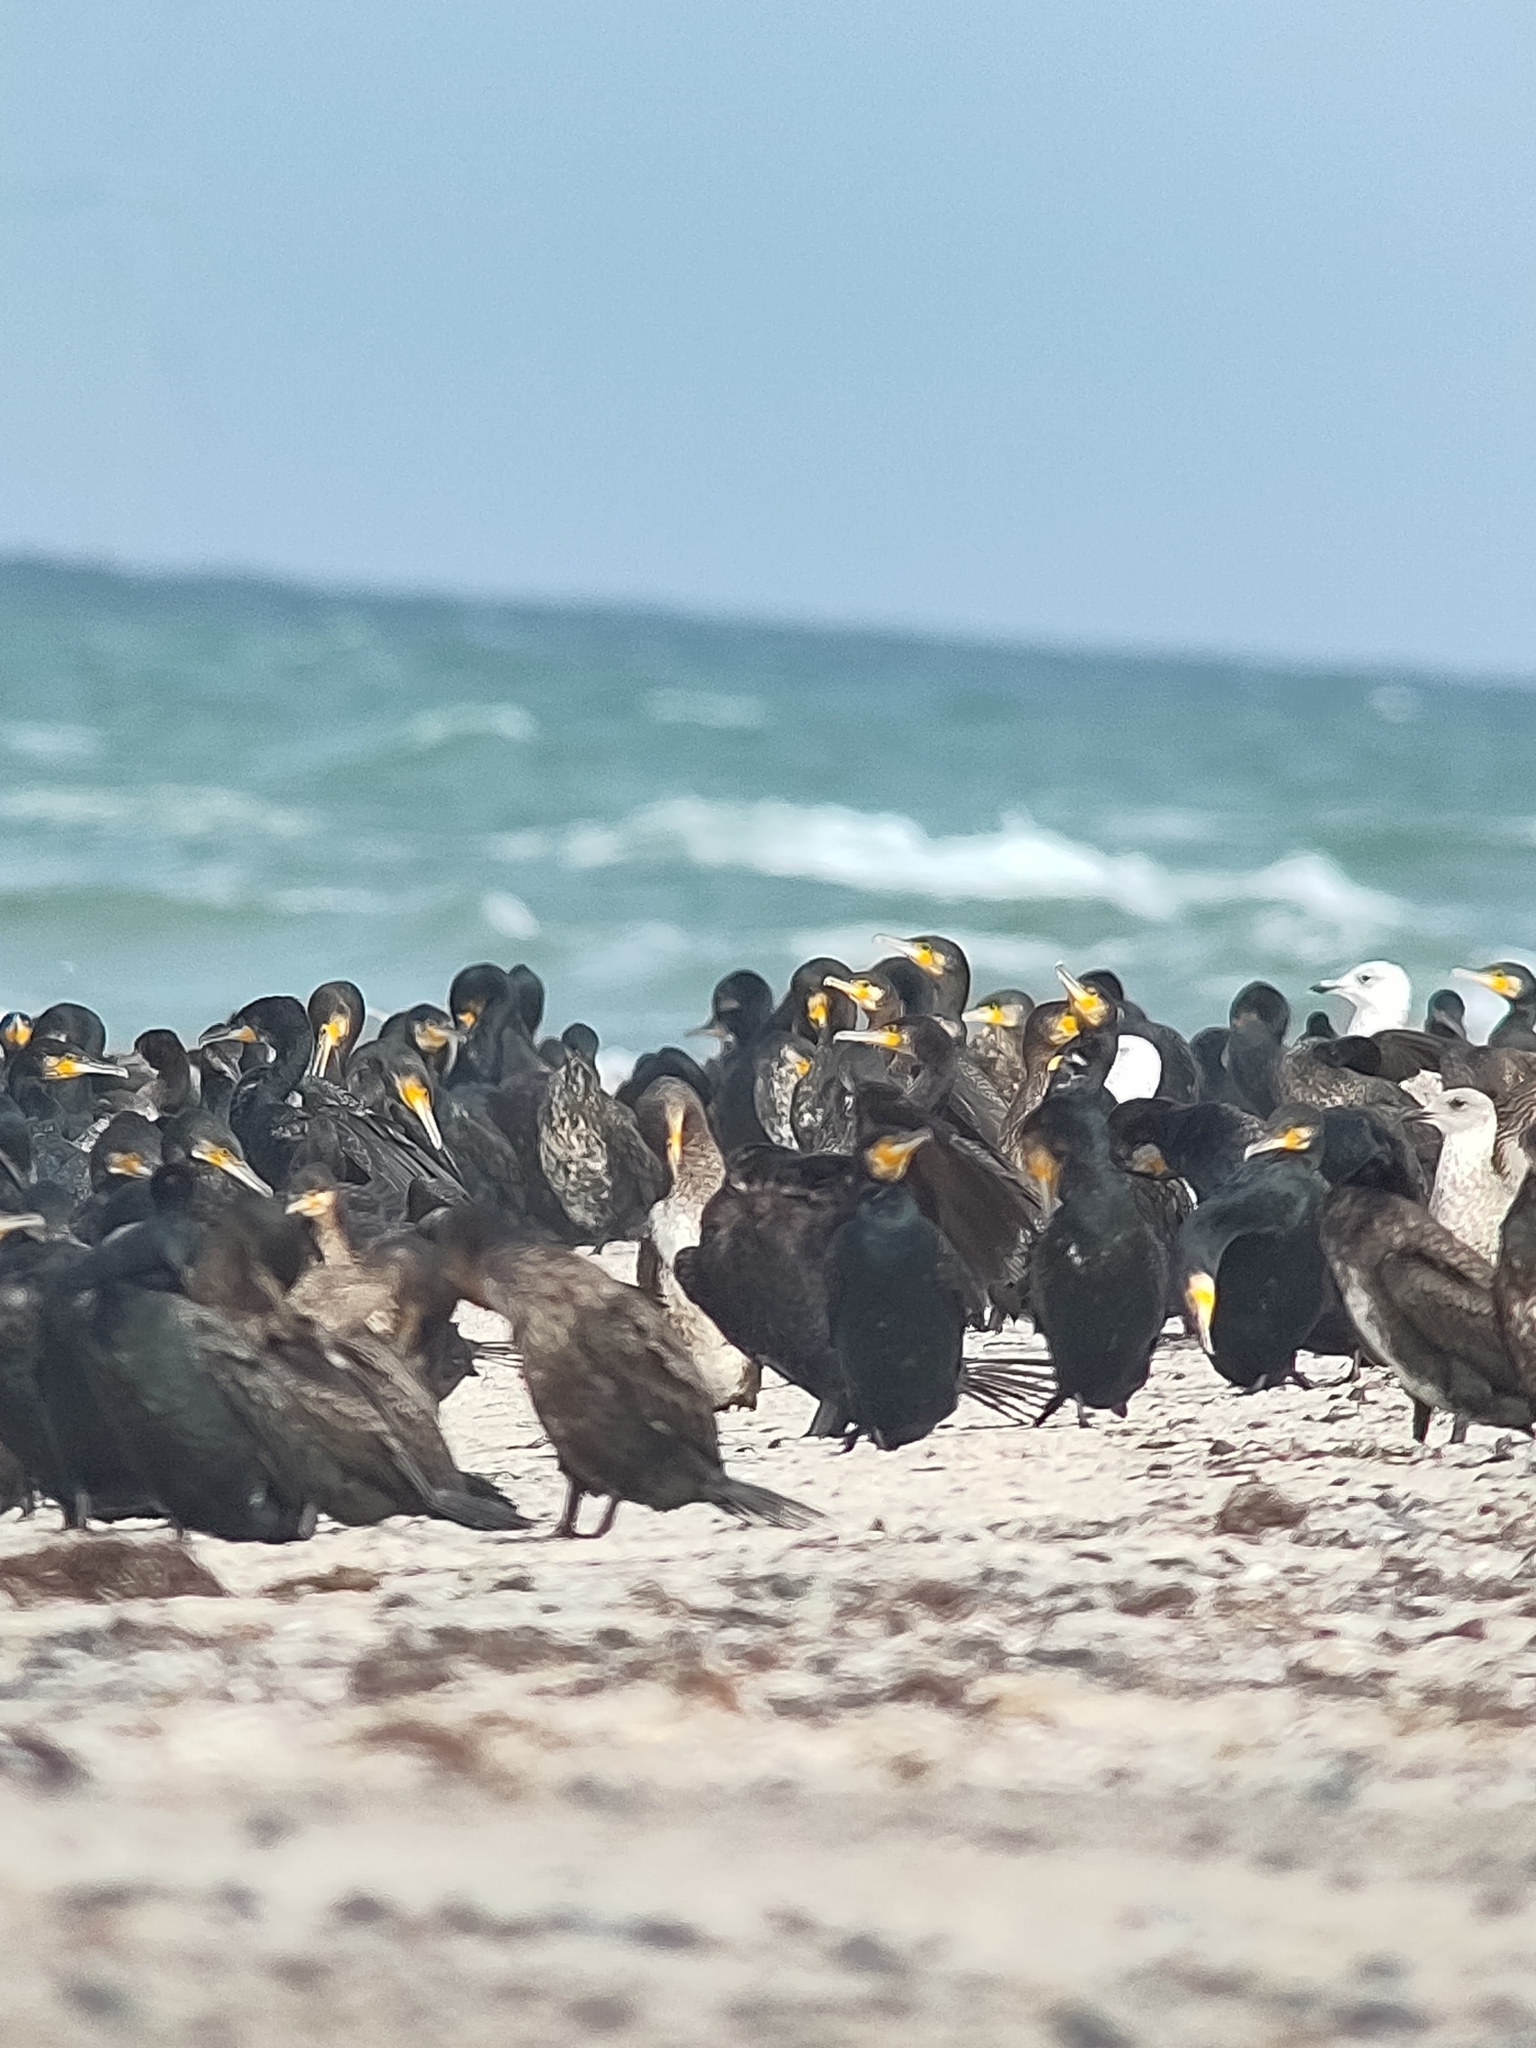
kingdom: Animalia
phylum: Chordata
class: Aves
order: Suliformes
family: Phalacrocoracidae
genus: Phalacrocorax
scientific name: Phalacrocorax carbo
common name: Great cormorant
